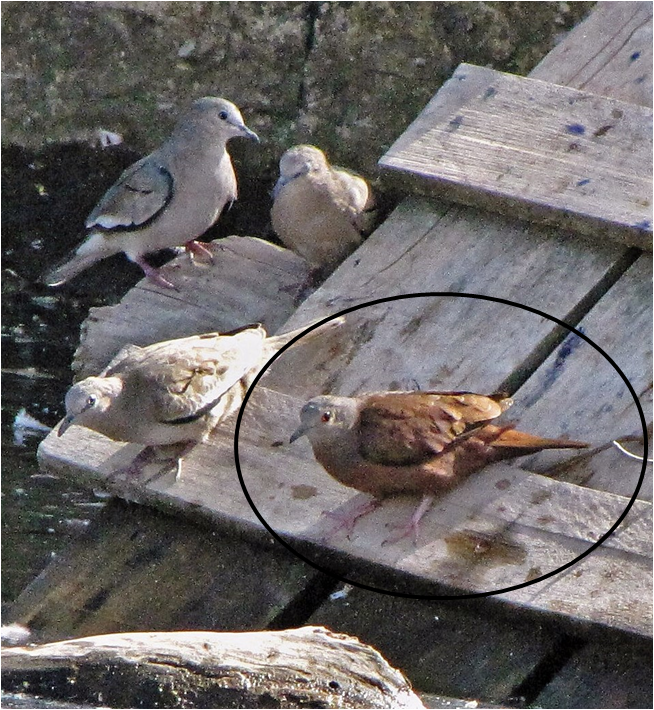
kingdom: Animalia
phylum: Chordata
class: Aves
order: Columbiformes
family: Columbidae
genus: Columbina
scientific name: Columbina talpacoti
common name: Ruddy ground dove
